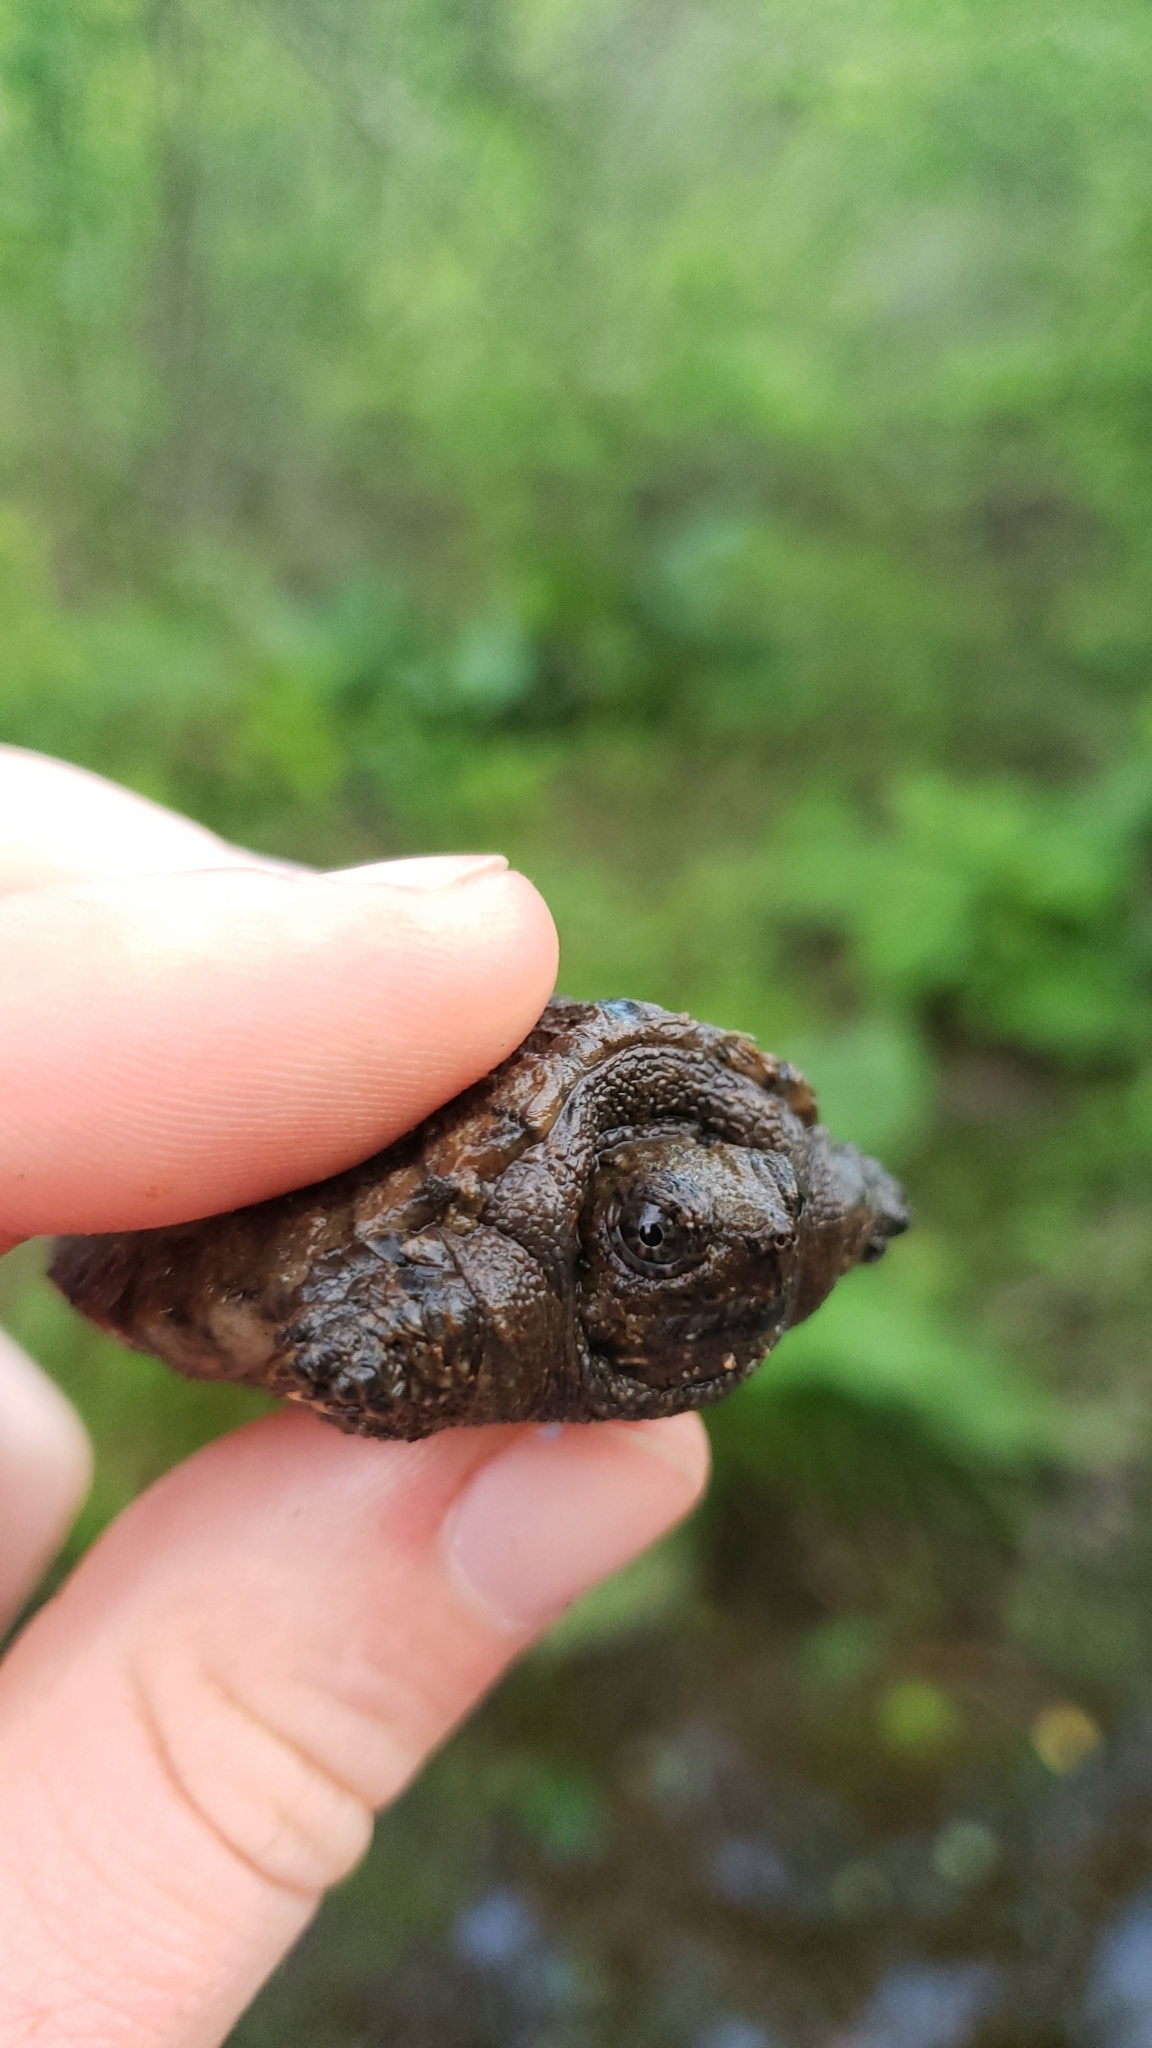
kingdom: Animalia
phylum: Chordata
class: Testudines
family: Chelydridae
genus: Chelydra
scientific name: Chelydra serpentina
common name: Common snapping turtle
